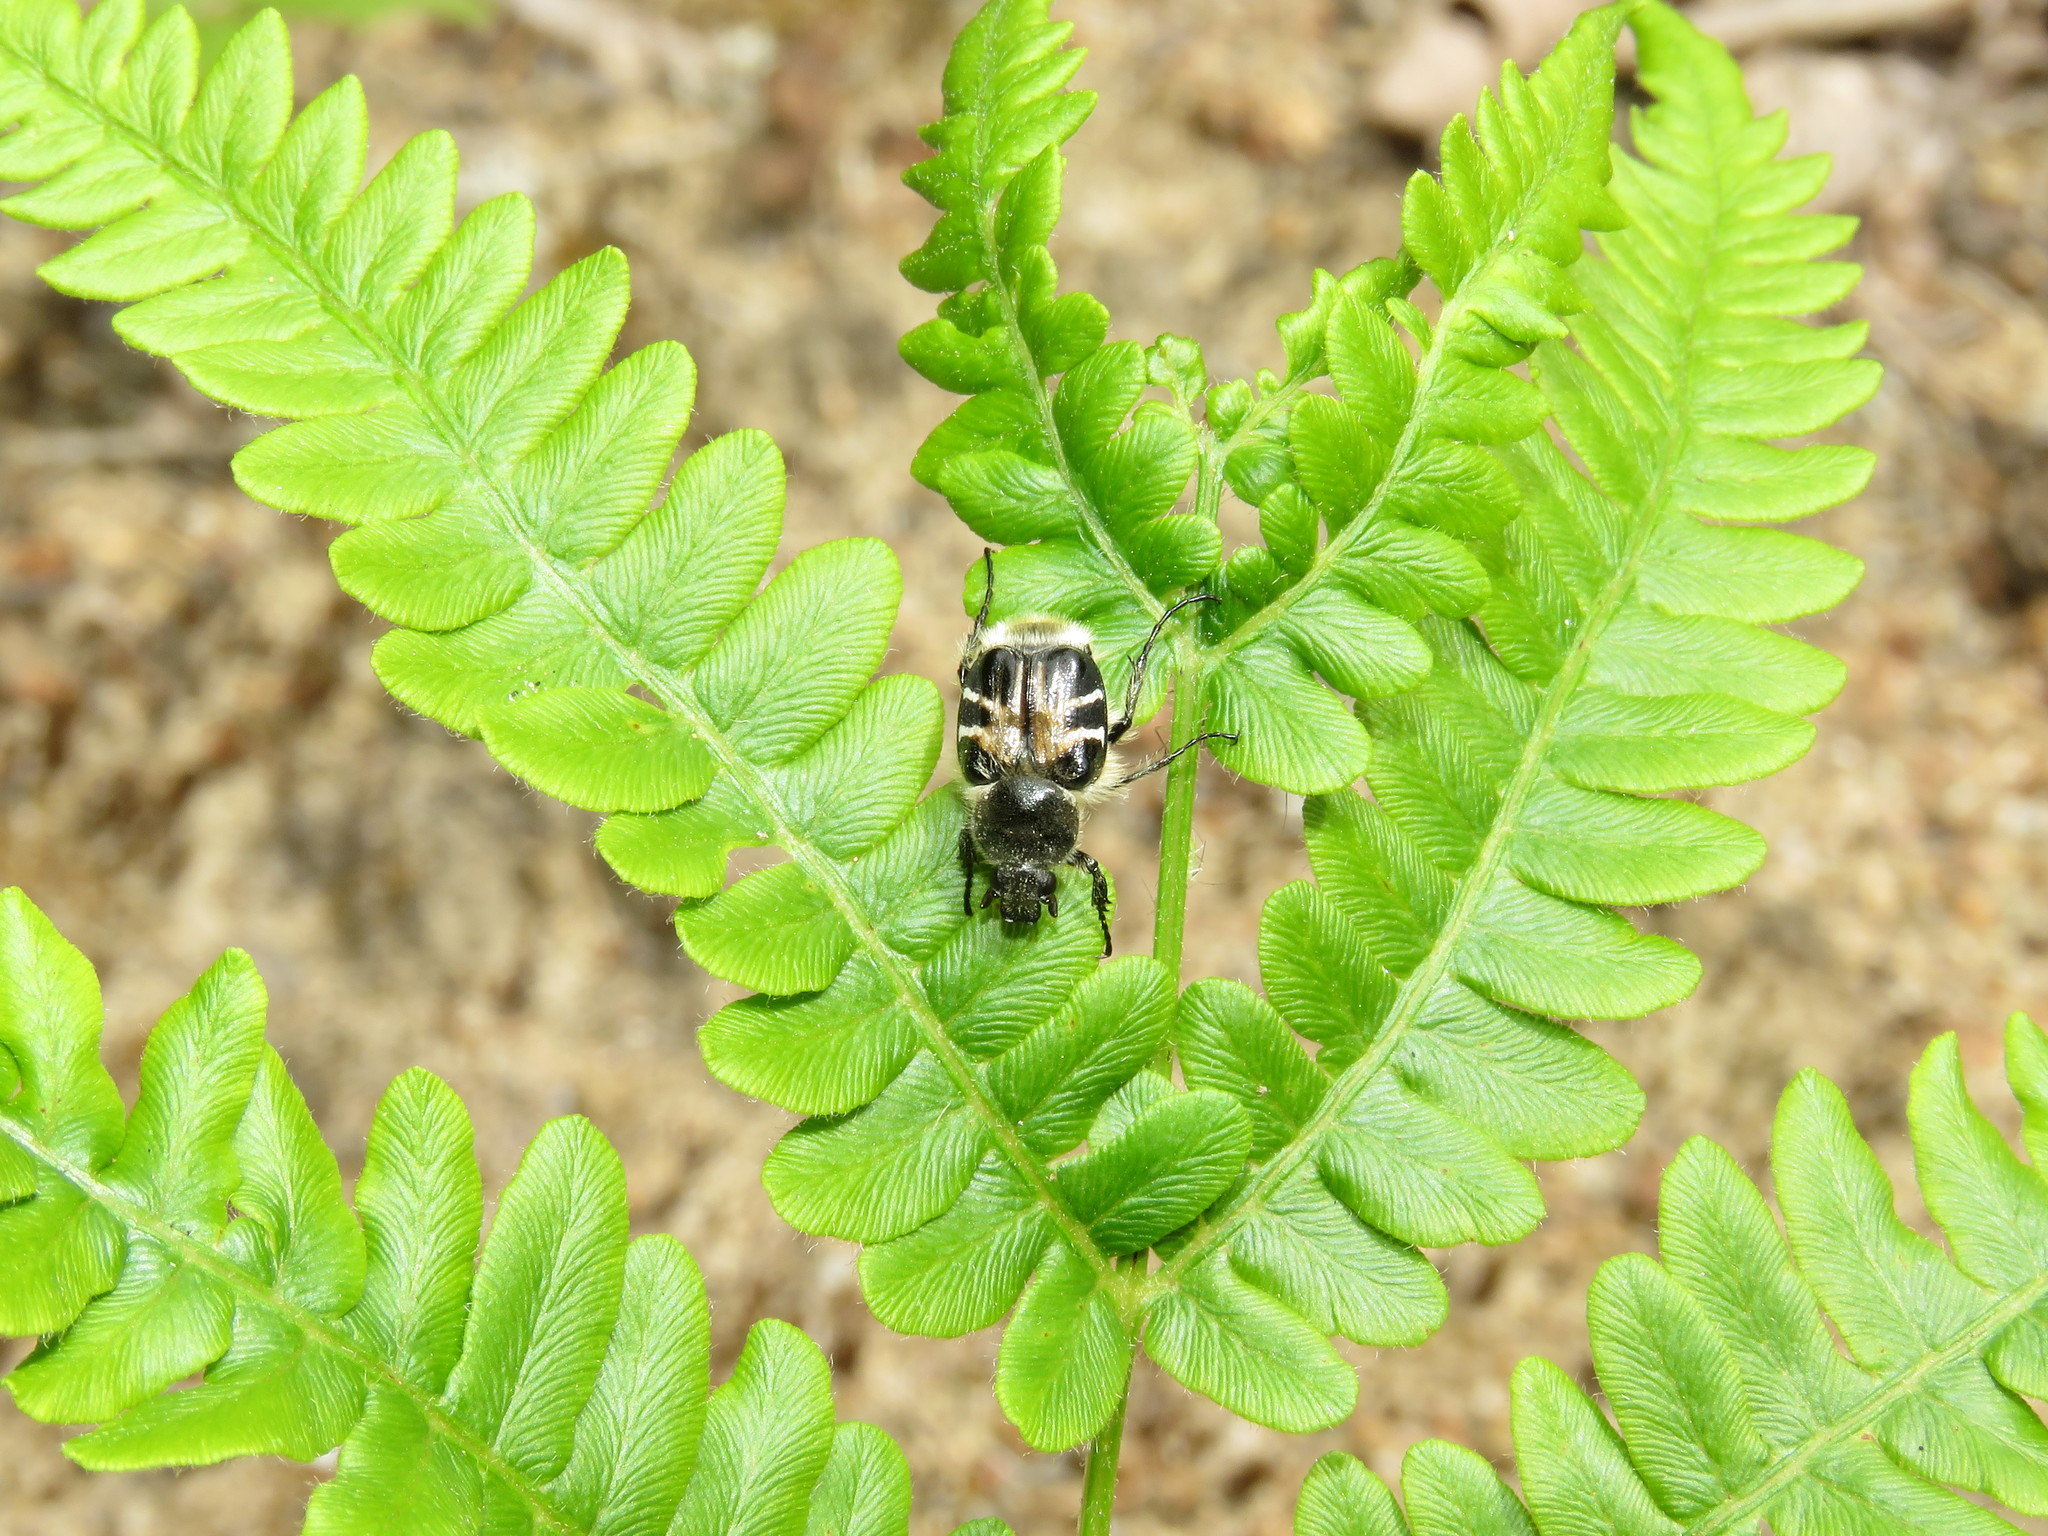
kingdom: Animalia
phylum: Arthropoda
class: Insecta
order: Coleoptera
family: Scarabaeidae
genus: Trichiotinus
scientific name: Trichiotinus assimilis
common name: Bee-mimic beetle
